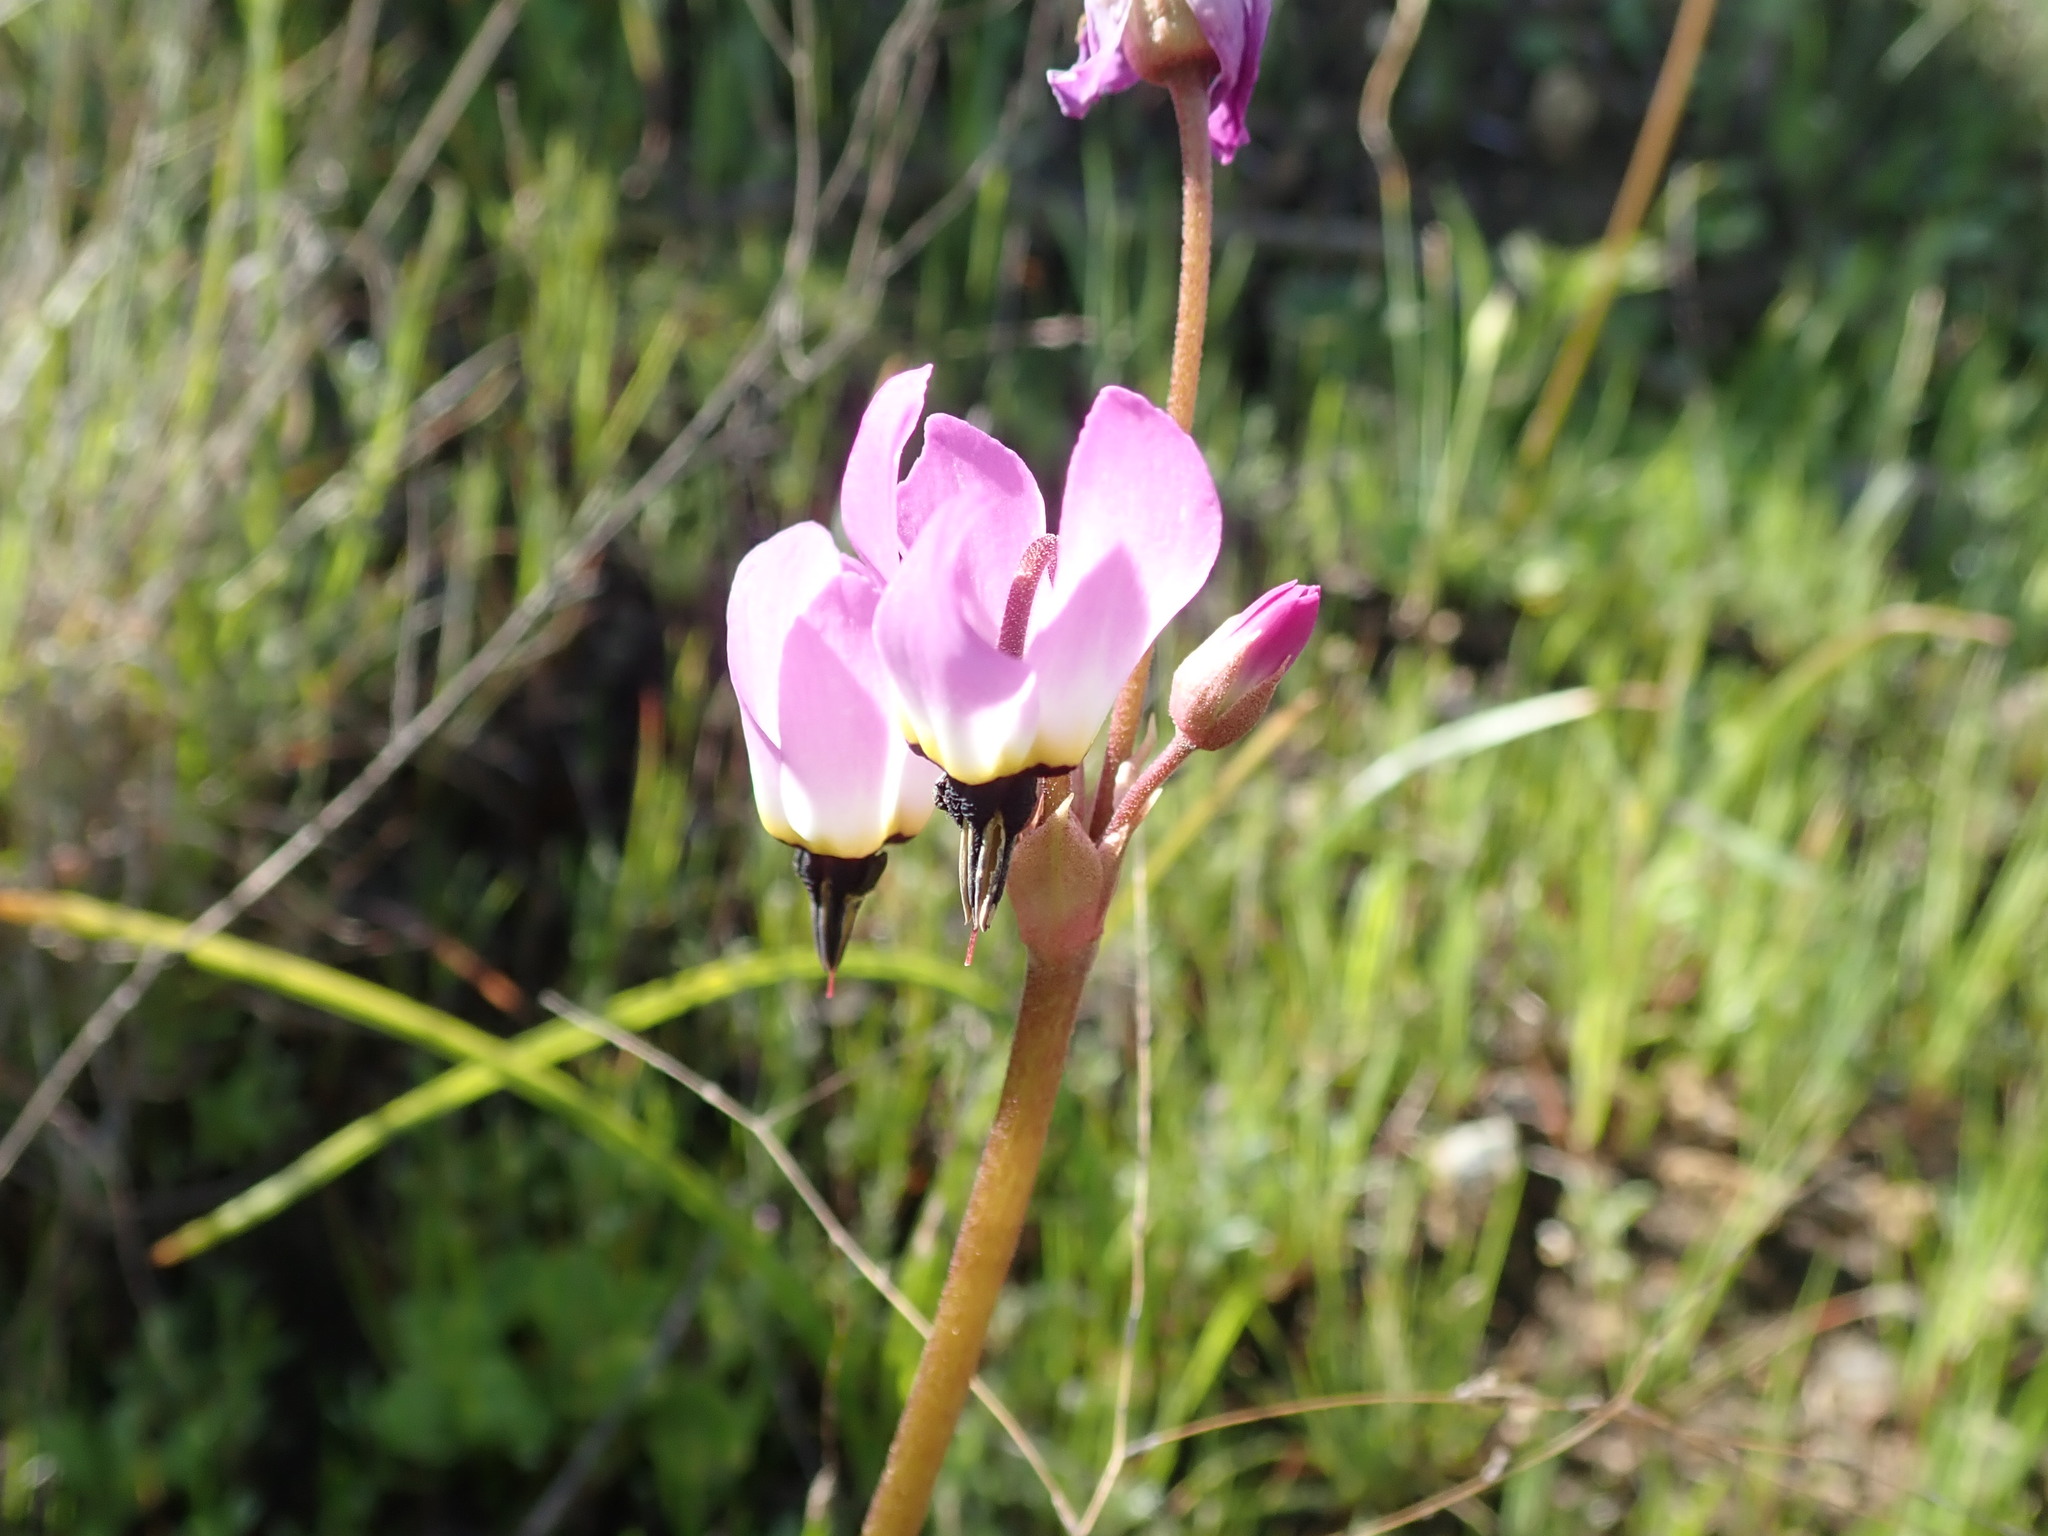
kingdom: Plantae
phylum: Tracheophyta
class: Magnoliopsida
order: Ericales
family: Primulaceae
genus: Dodecatheon
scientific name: Dodecatheon hendersonii
